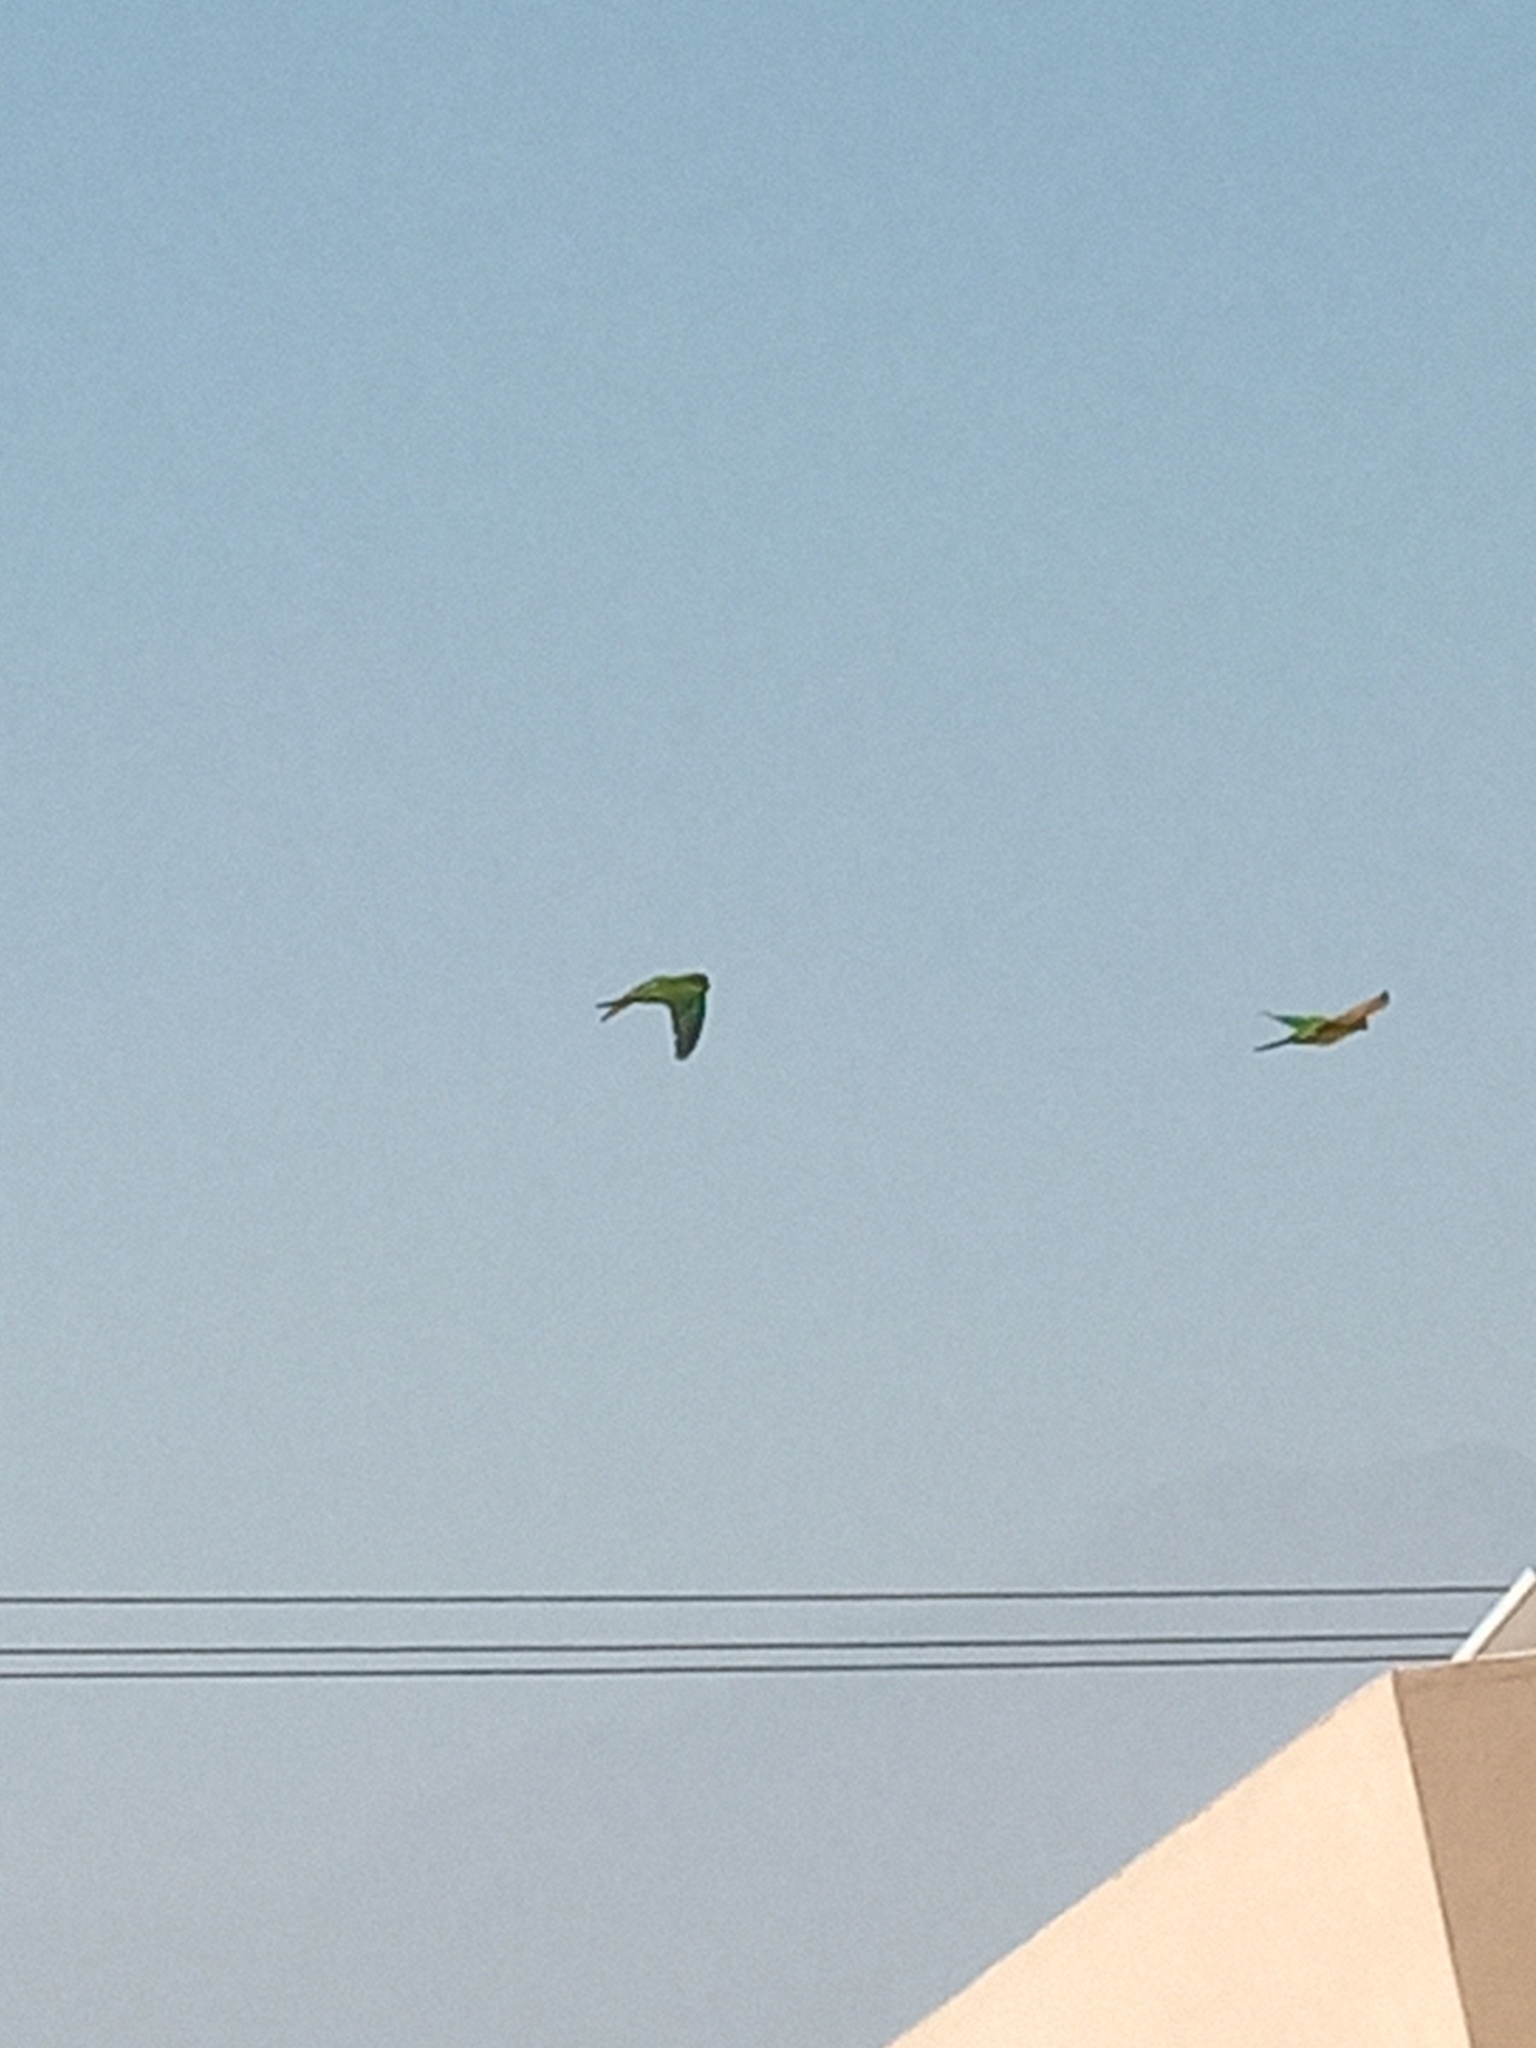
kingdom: Animalia
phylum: Chordata
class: Aves
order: Psittaciformes
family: Psittacidae
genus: Aratinga
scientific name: Aratinga holochlora
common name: Green parakeet
